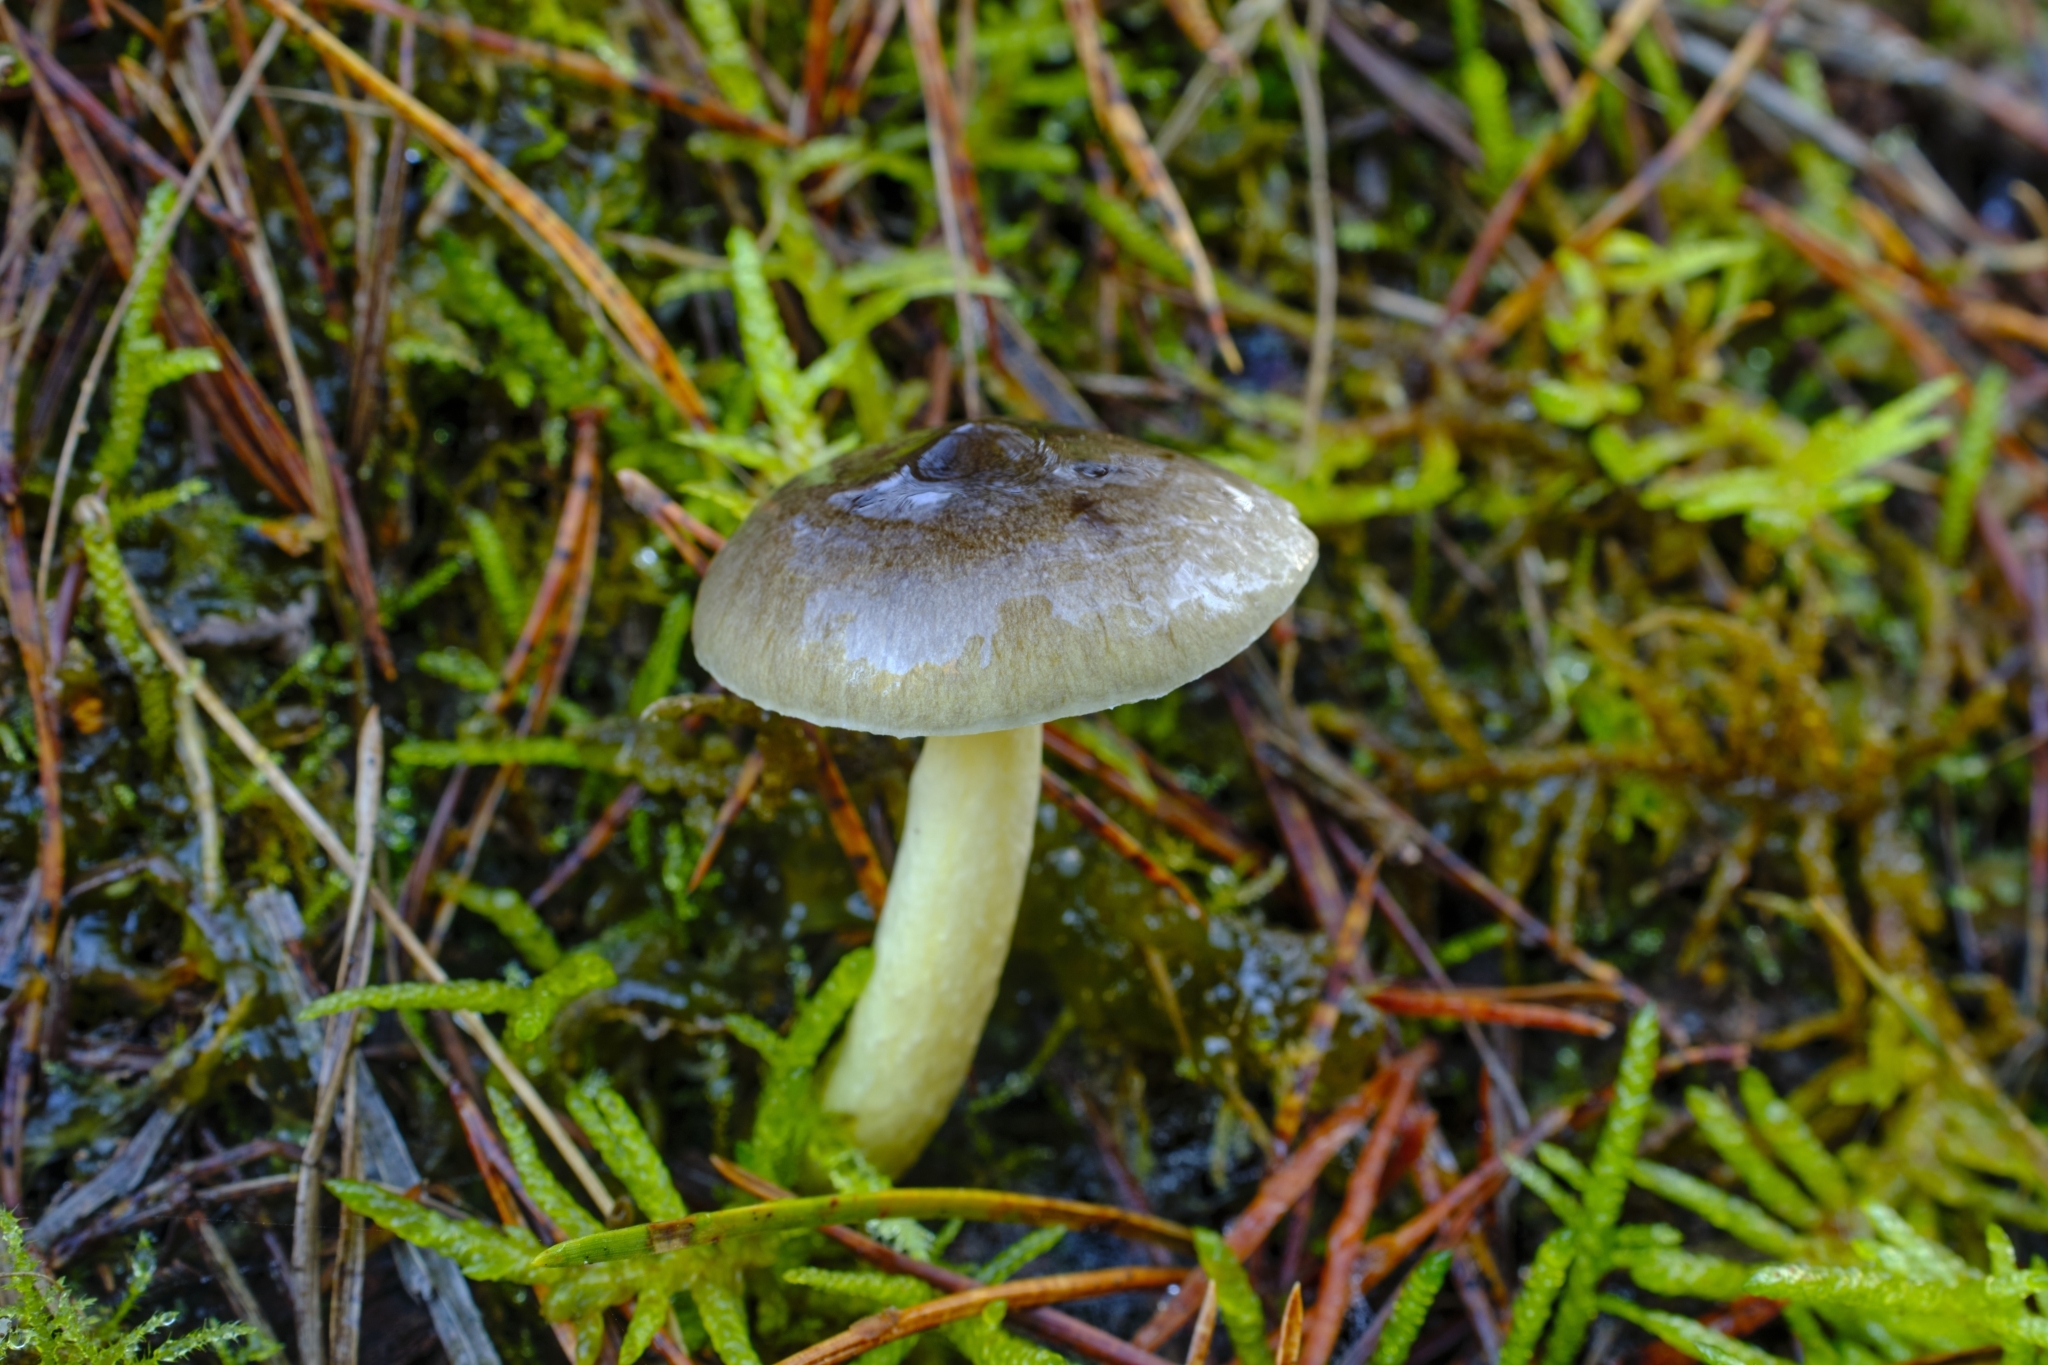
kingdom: Fungi
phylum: Basidiomycota
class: Agaricomycetes
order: Agaricales
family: Hygrophoraceae
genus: Hygrophorus
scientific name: Hygrophorus hypothejus
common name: Herald of winter
